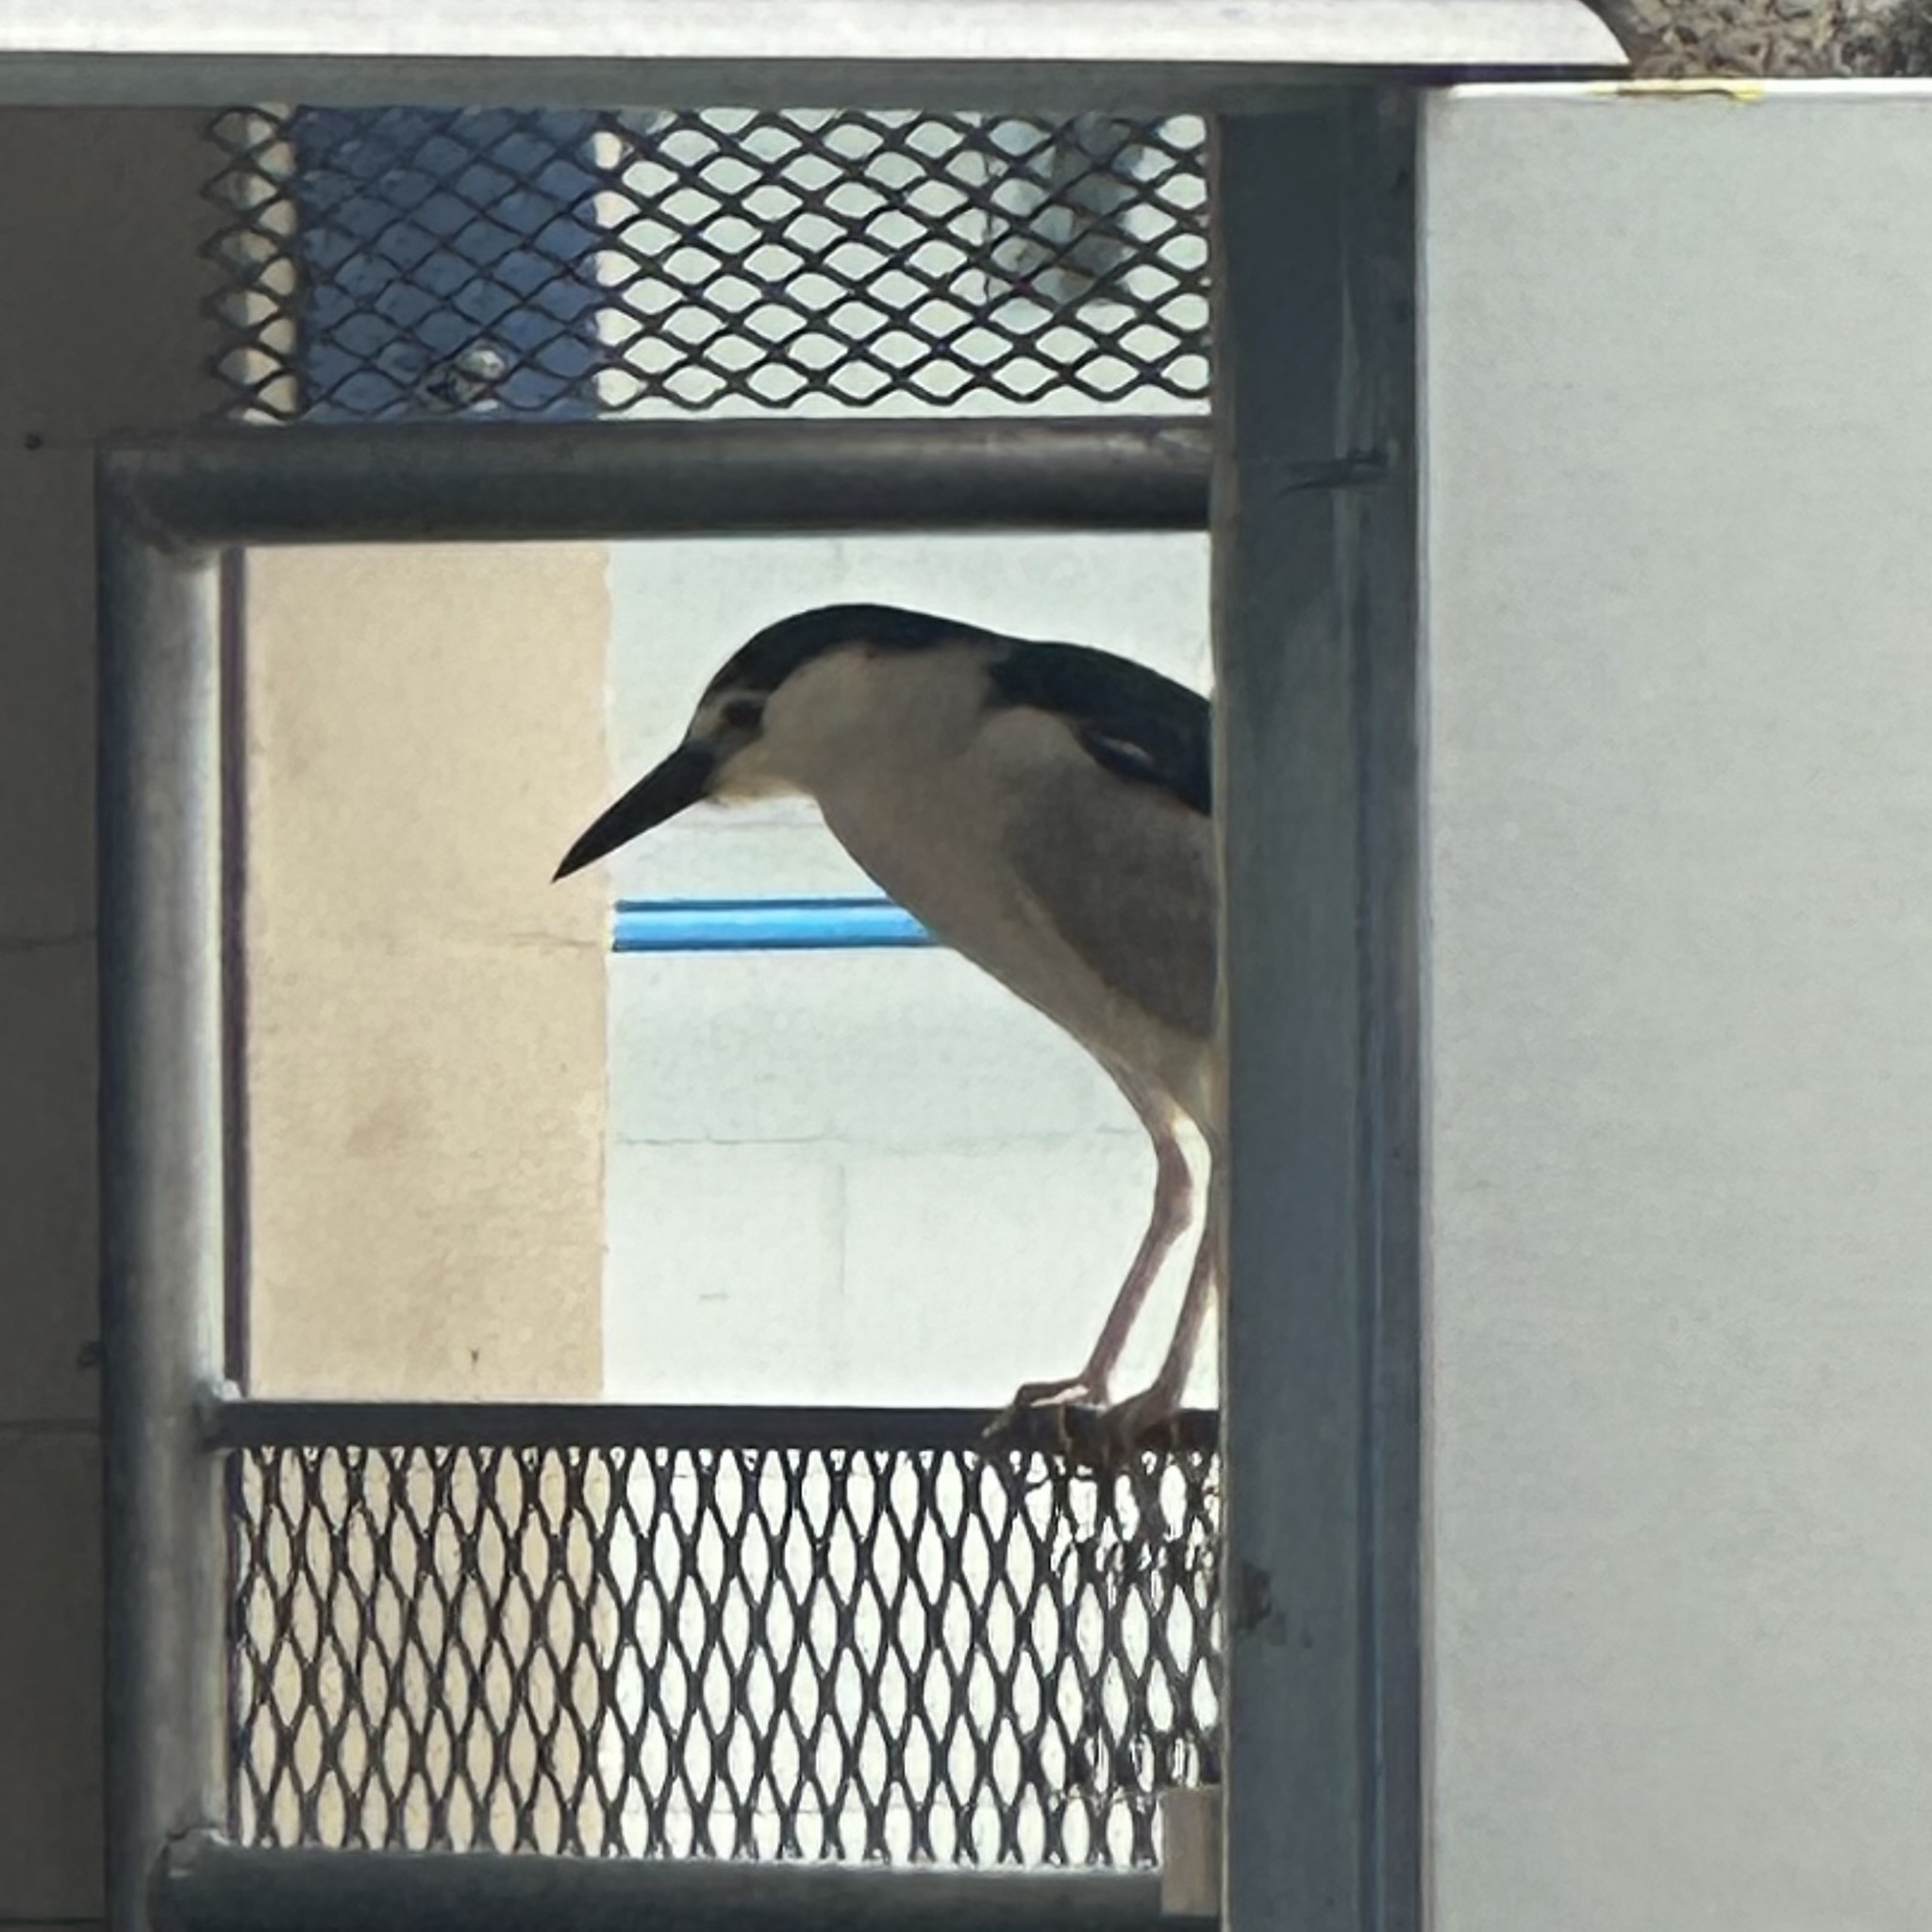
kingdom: Animalia
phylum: Chordata
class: Aves
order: Pelecaniformes
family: Ardeidae
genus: Nycticorax
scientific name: Nycticorax nycticorax
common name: Black-crowned night heron
